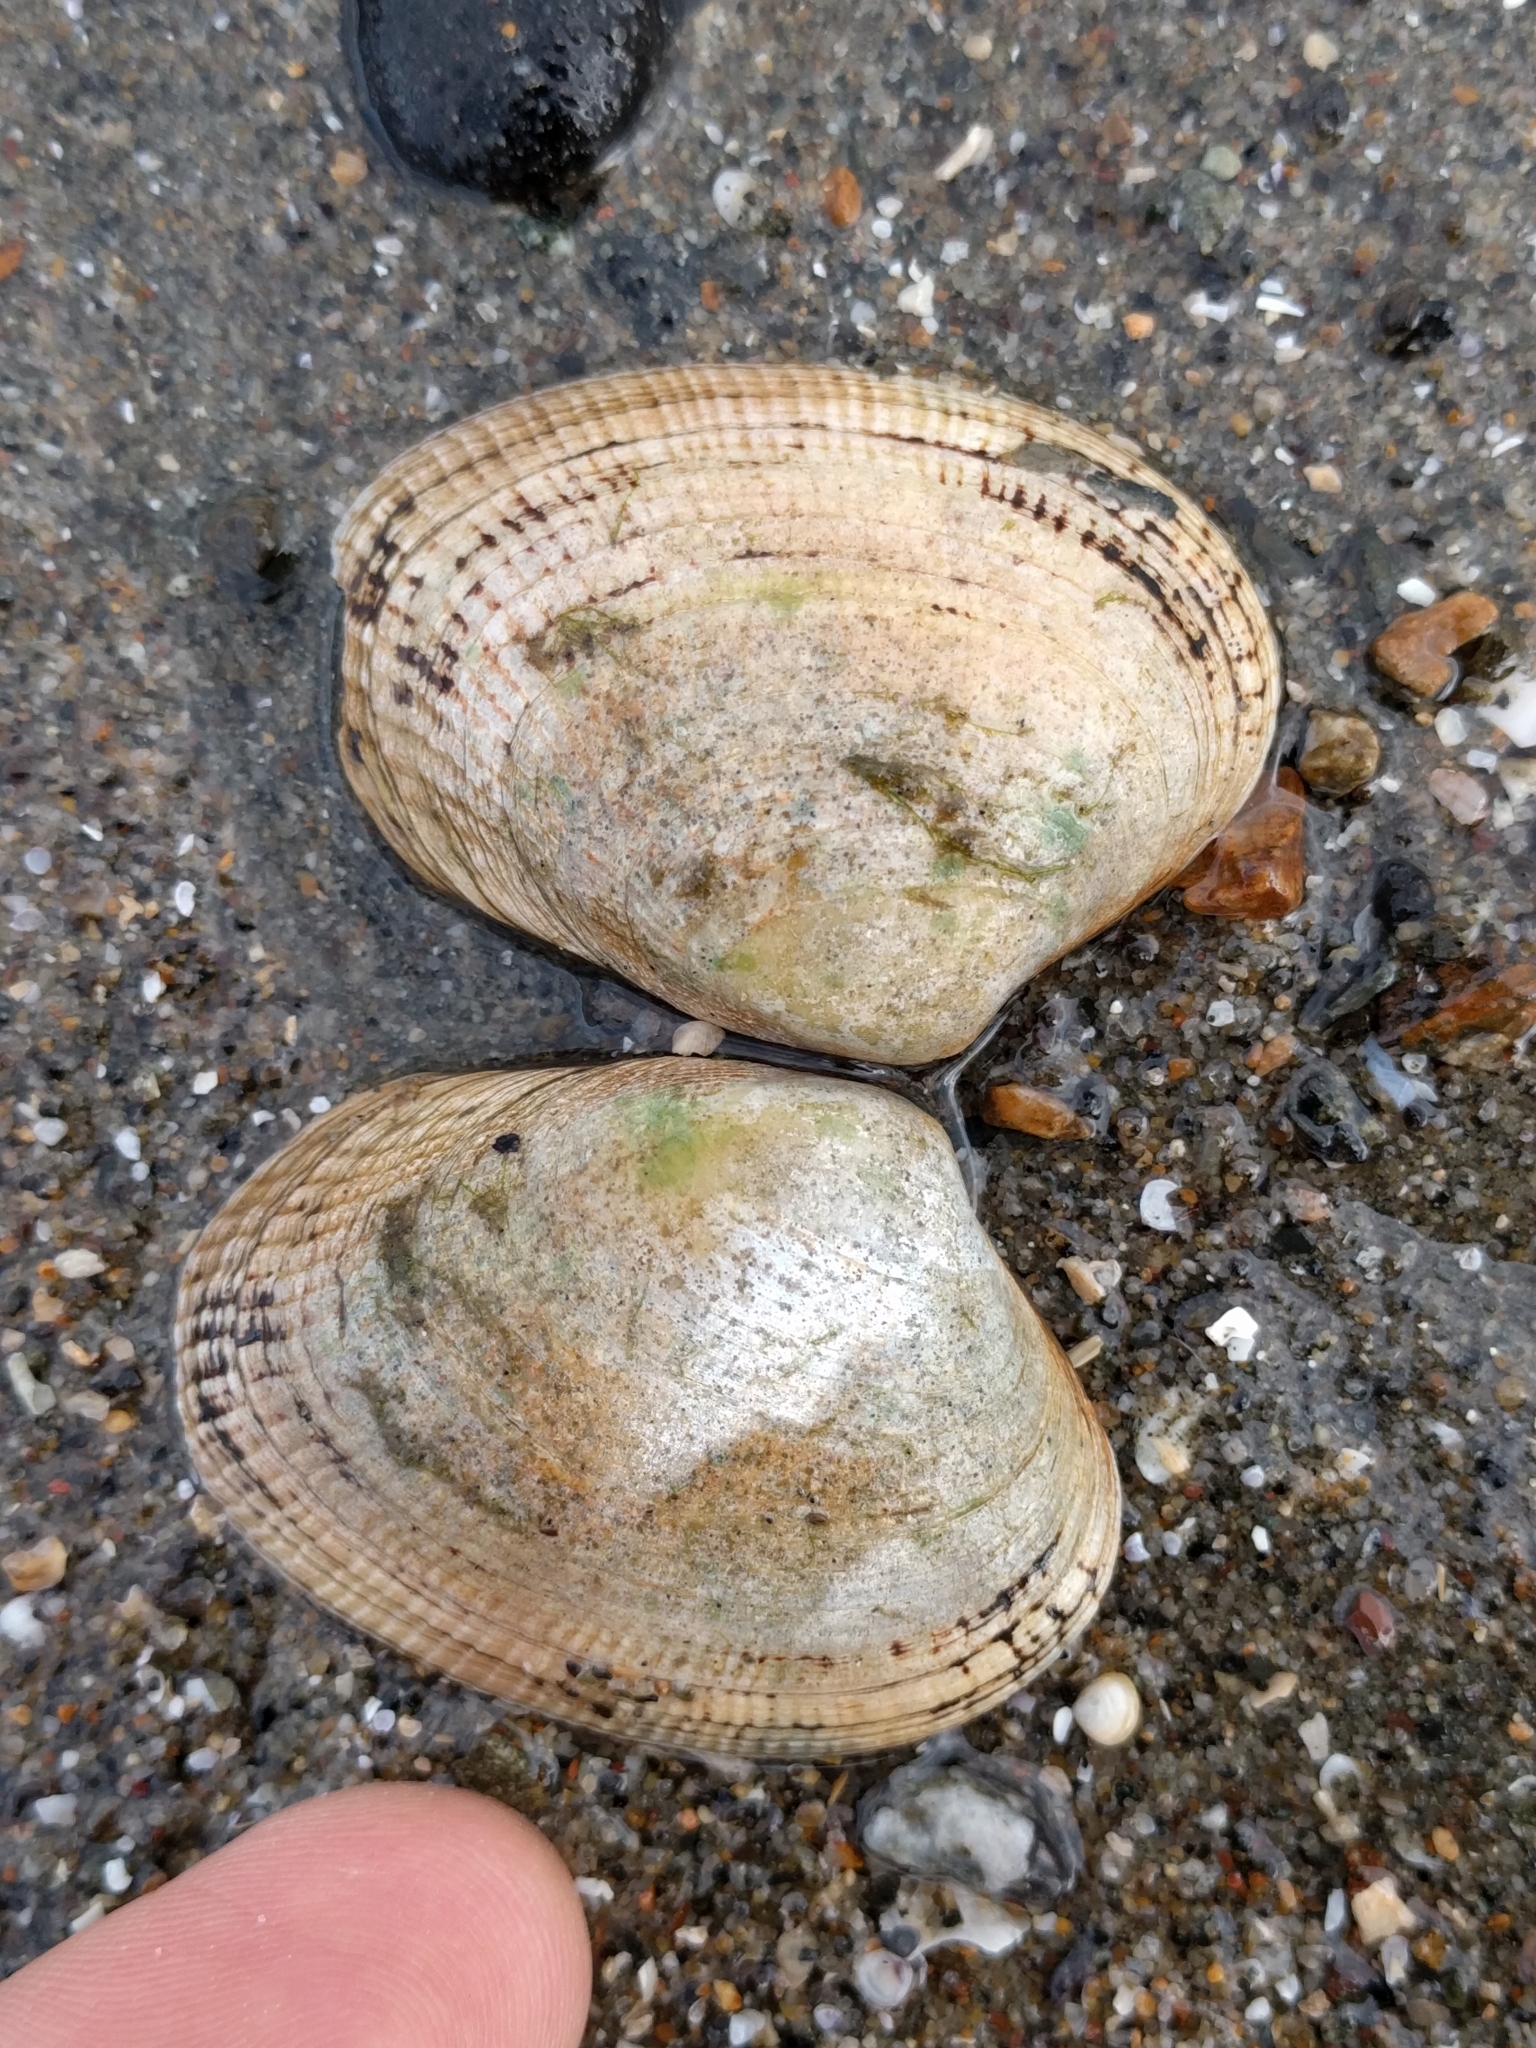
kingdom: Animalia
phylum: Mollusca
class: Bivalvia
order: Venerida
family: Veneridae
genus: Ruditapes
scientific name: Ruditapes philippinarum
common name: Manila clam
